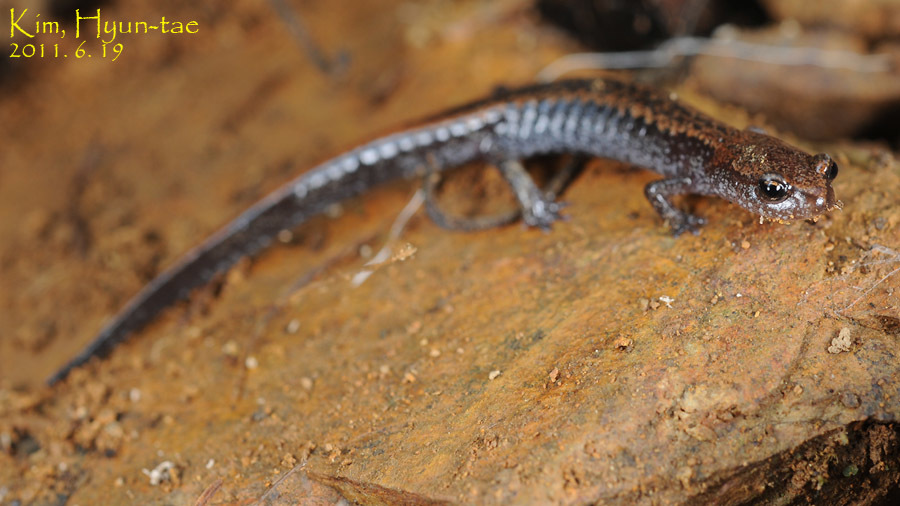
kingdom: Animalia
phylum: Chordata
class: Amphibia
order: Caudata
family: Plethodontidae
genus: Karsenia
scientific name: Karsenia koreana
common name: Korean crevice salamander
